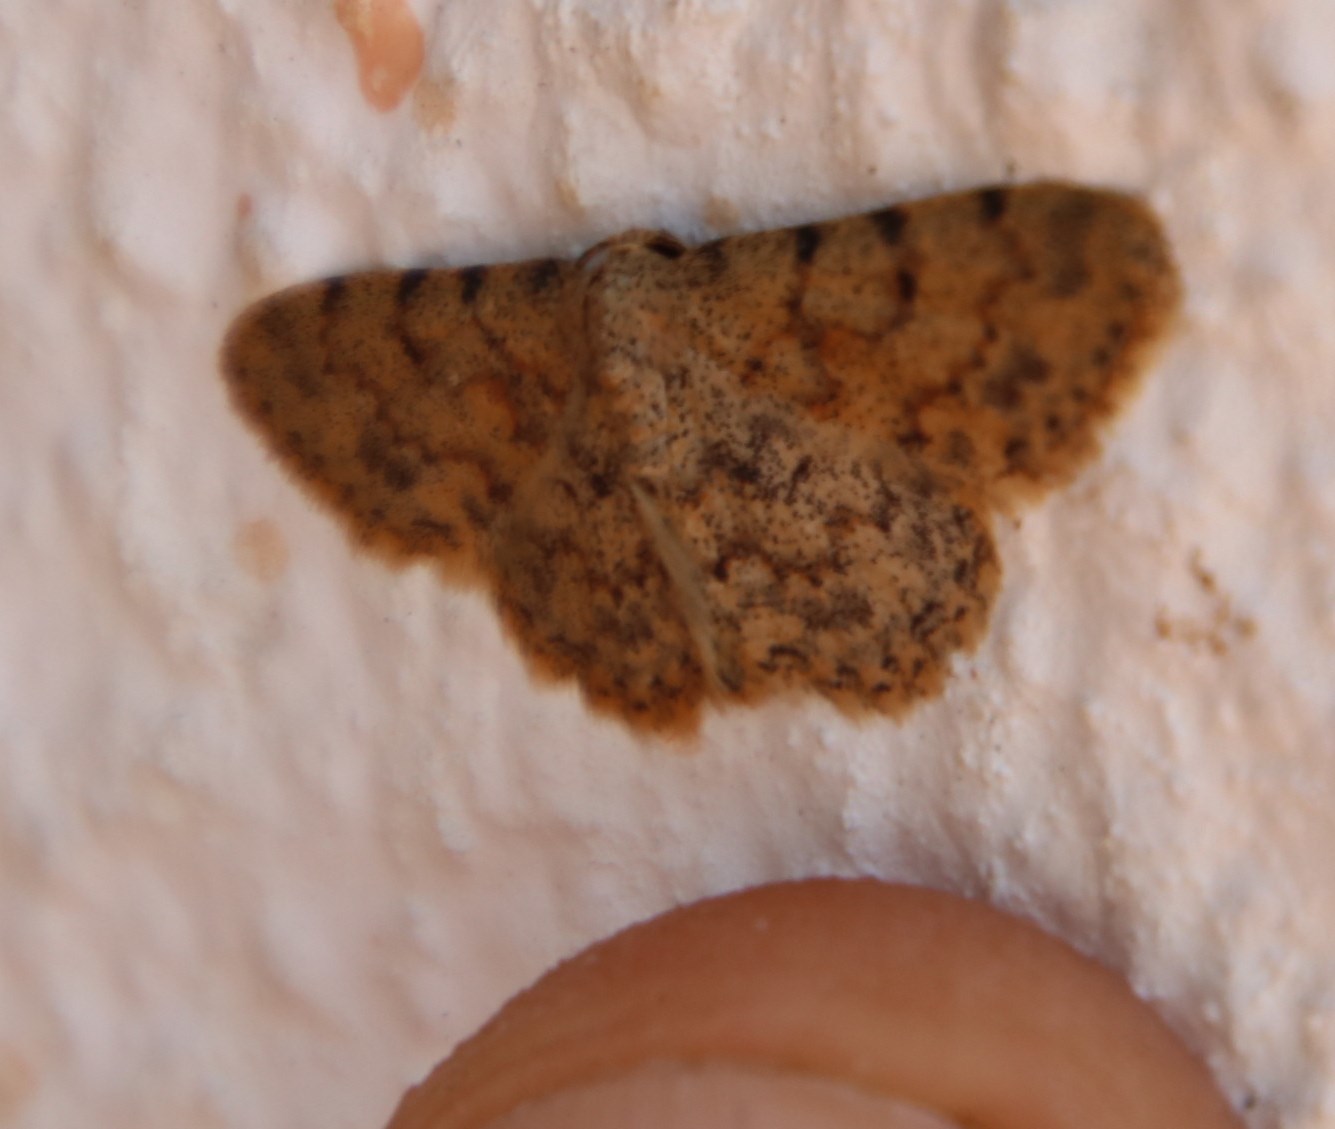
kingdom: Animalia
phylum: Arthropoda
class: Insecta
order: Lepidoptera
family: Geometridae
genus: Scopula
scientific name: Scopula nigrinotata
